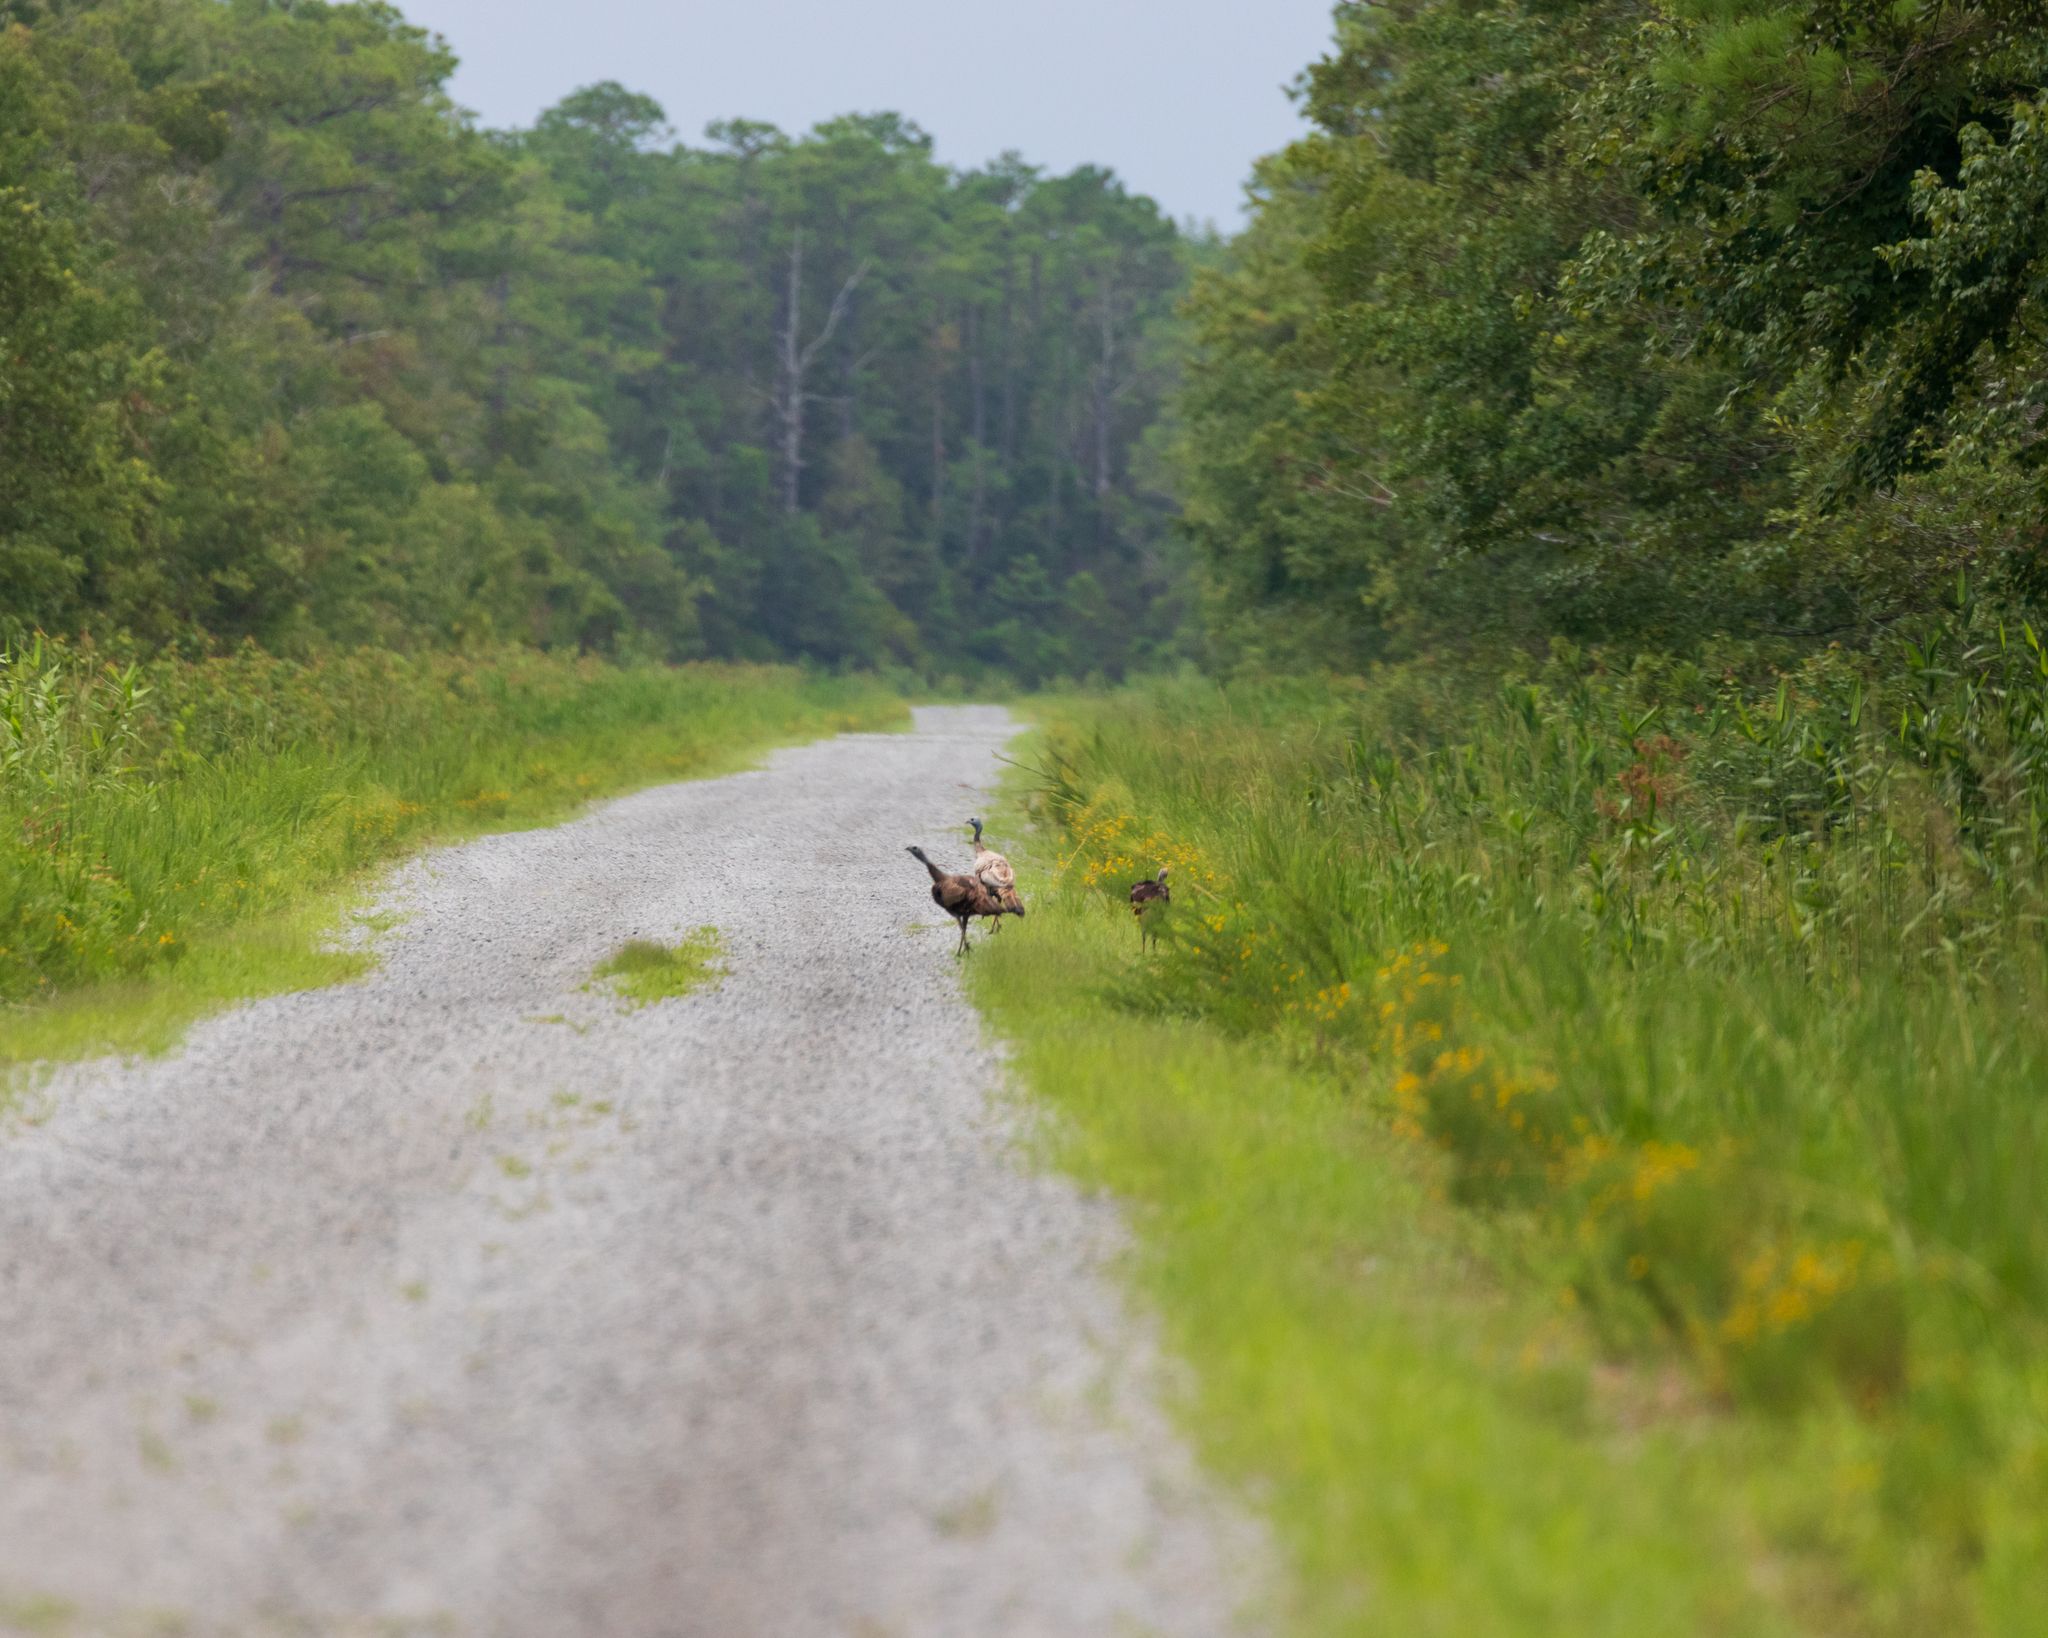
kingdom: Animalia
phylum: Chordata
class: Aves
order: Galliformes
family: Phasianidae
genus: Meleagris
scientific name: Meleagris gallopavo
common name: Wild turkey
